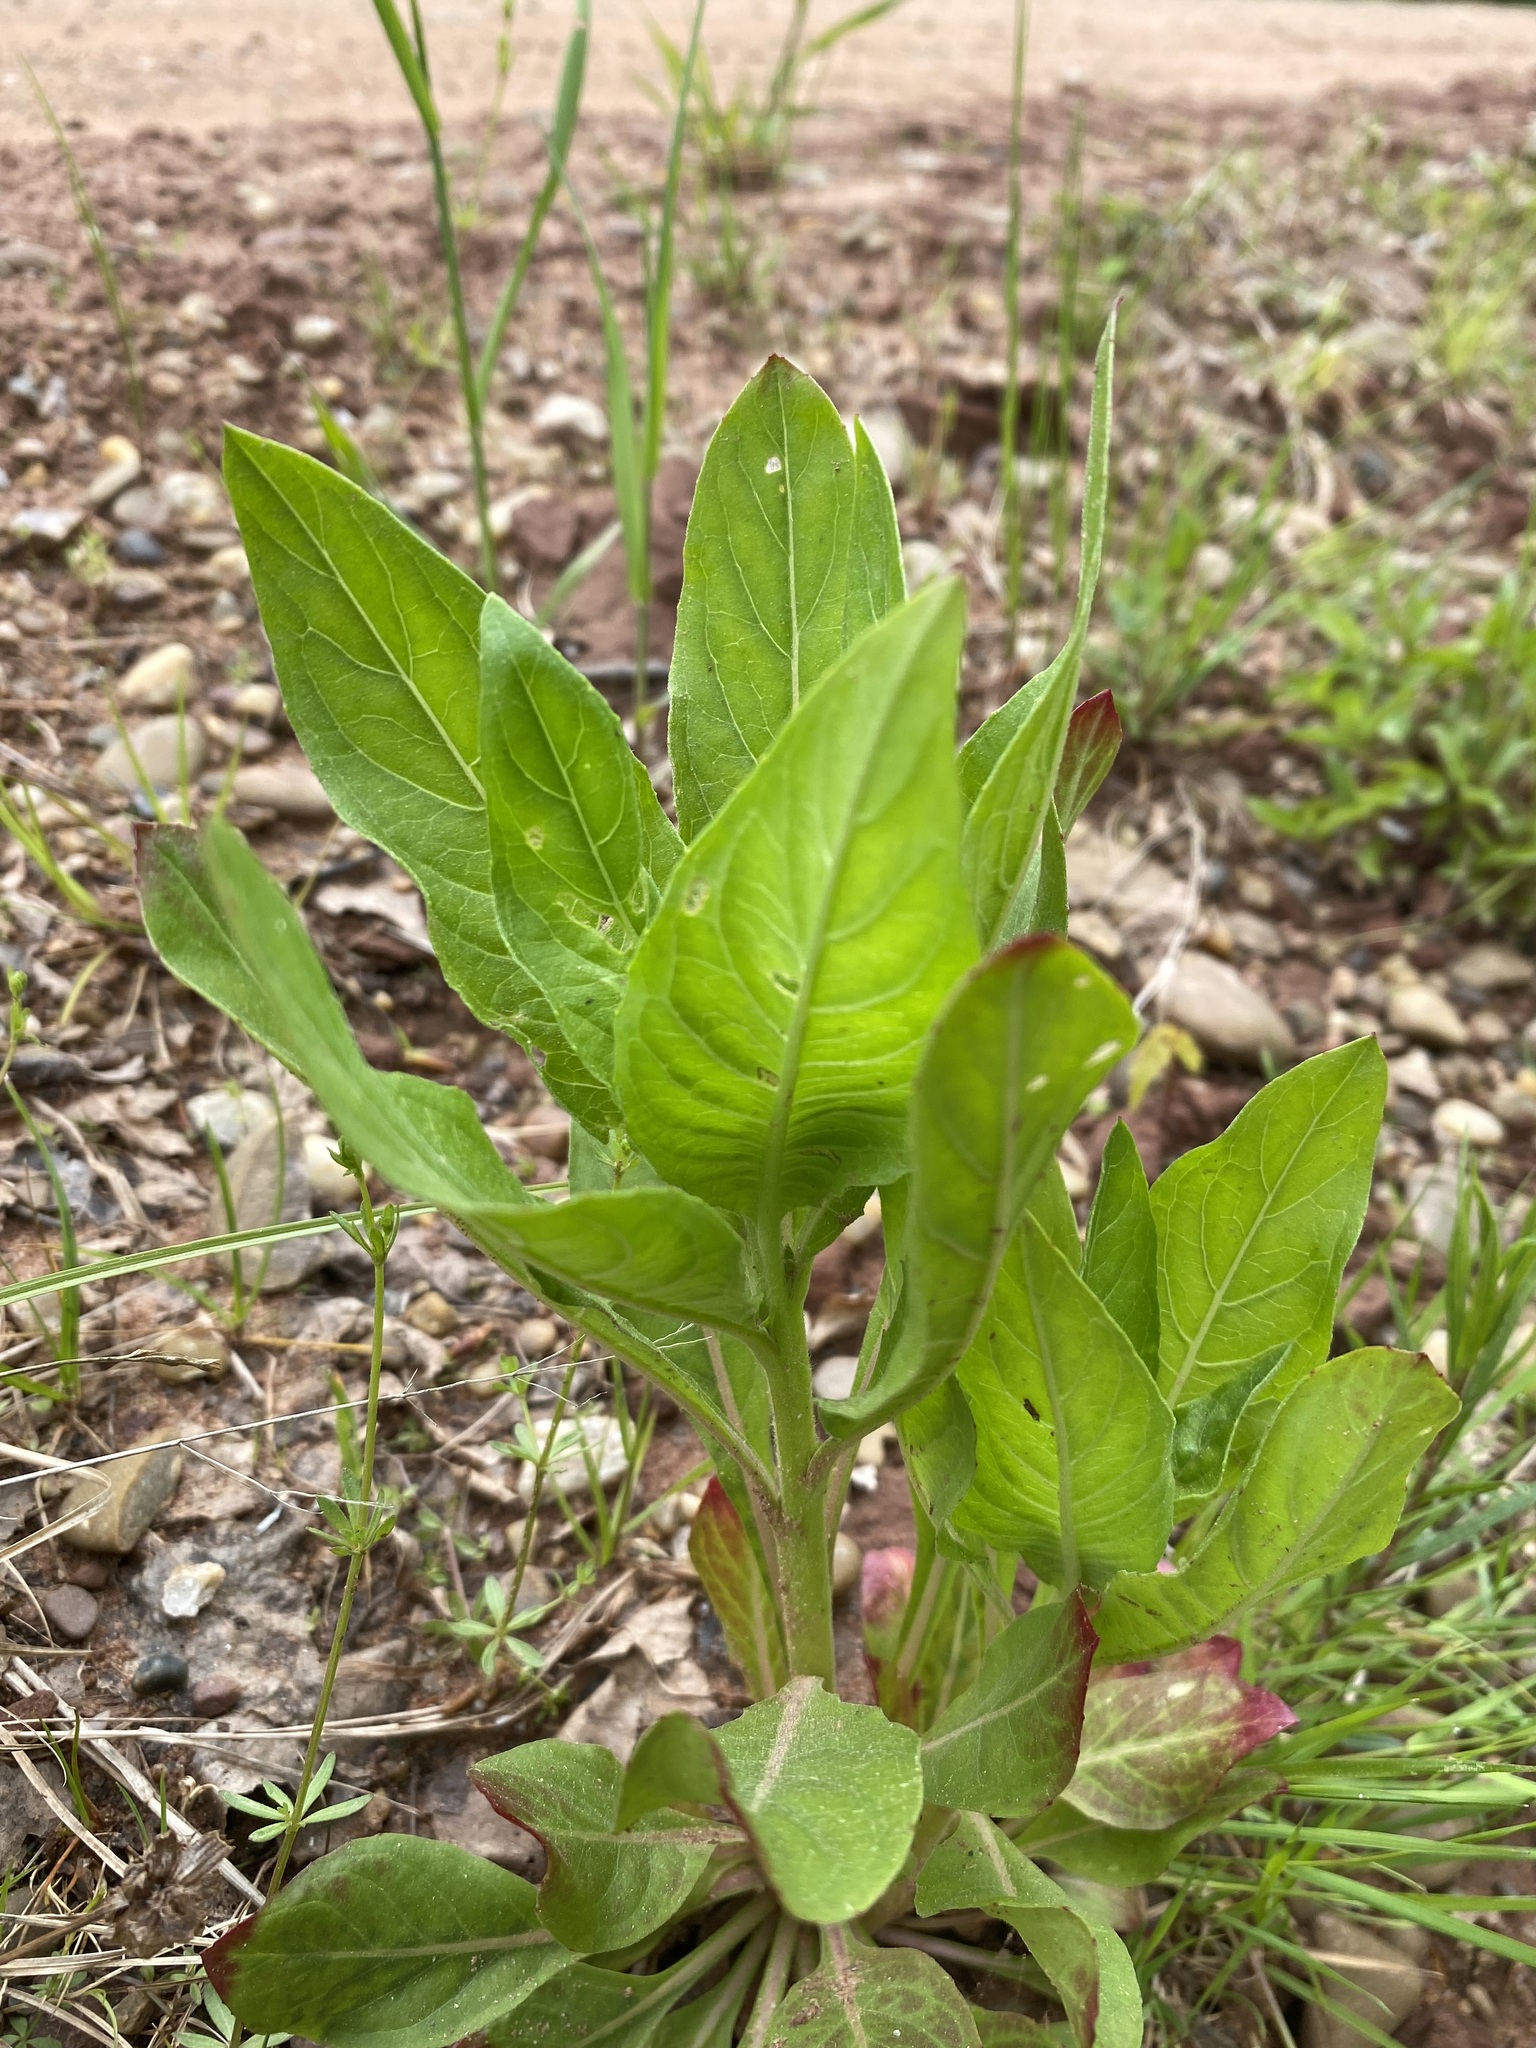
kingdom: Plantae
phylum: Tracheophyta
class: Magnoliopsida
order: Myrtales
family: Onagraceae
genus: Oenothera
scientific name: Oenothera biennis
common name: Common evening-primrose
